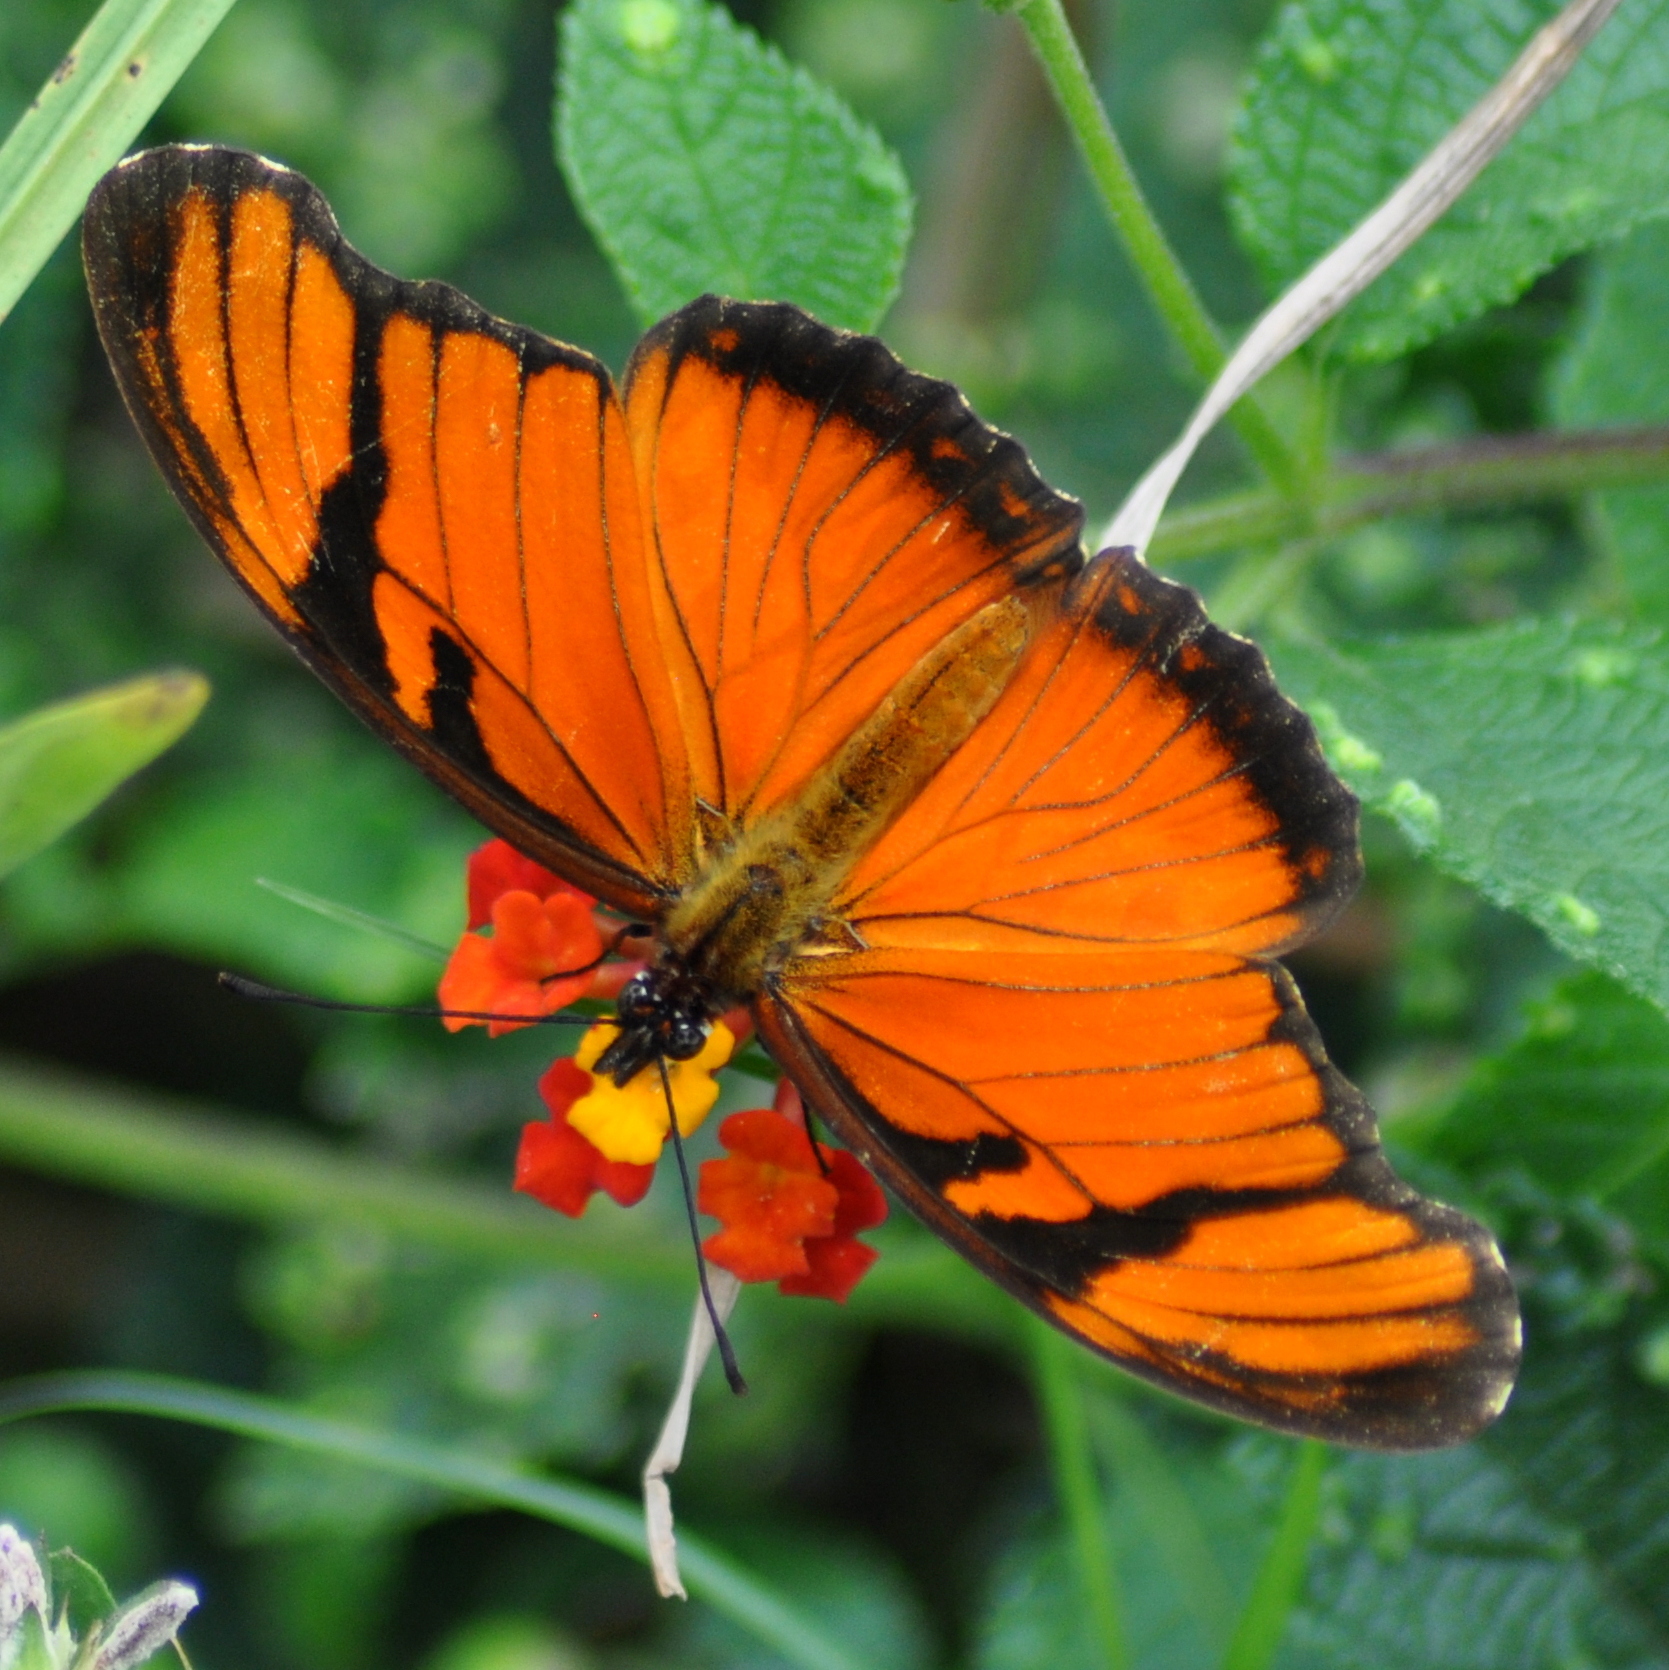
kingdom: Animalia
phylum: Arthropoda
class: Insecta
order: Lepidoptera
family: Nymphalidae
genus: Dione
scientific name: Dione juno
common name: Juno silverspot
